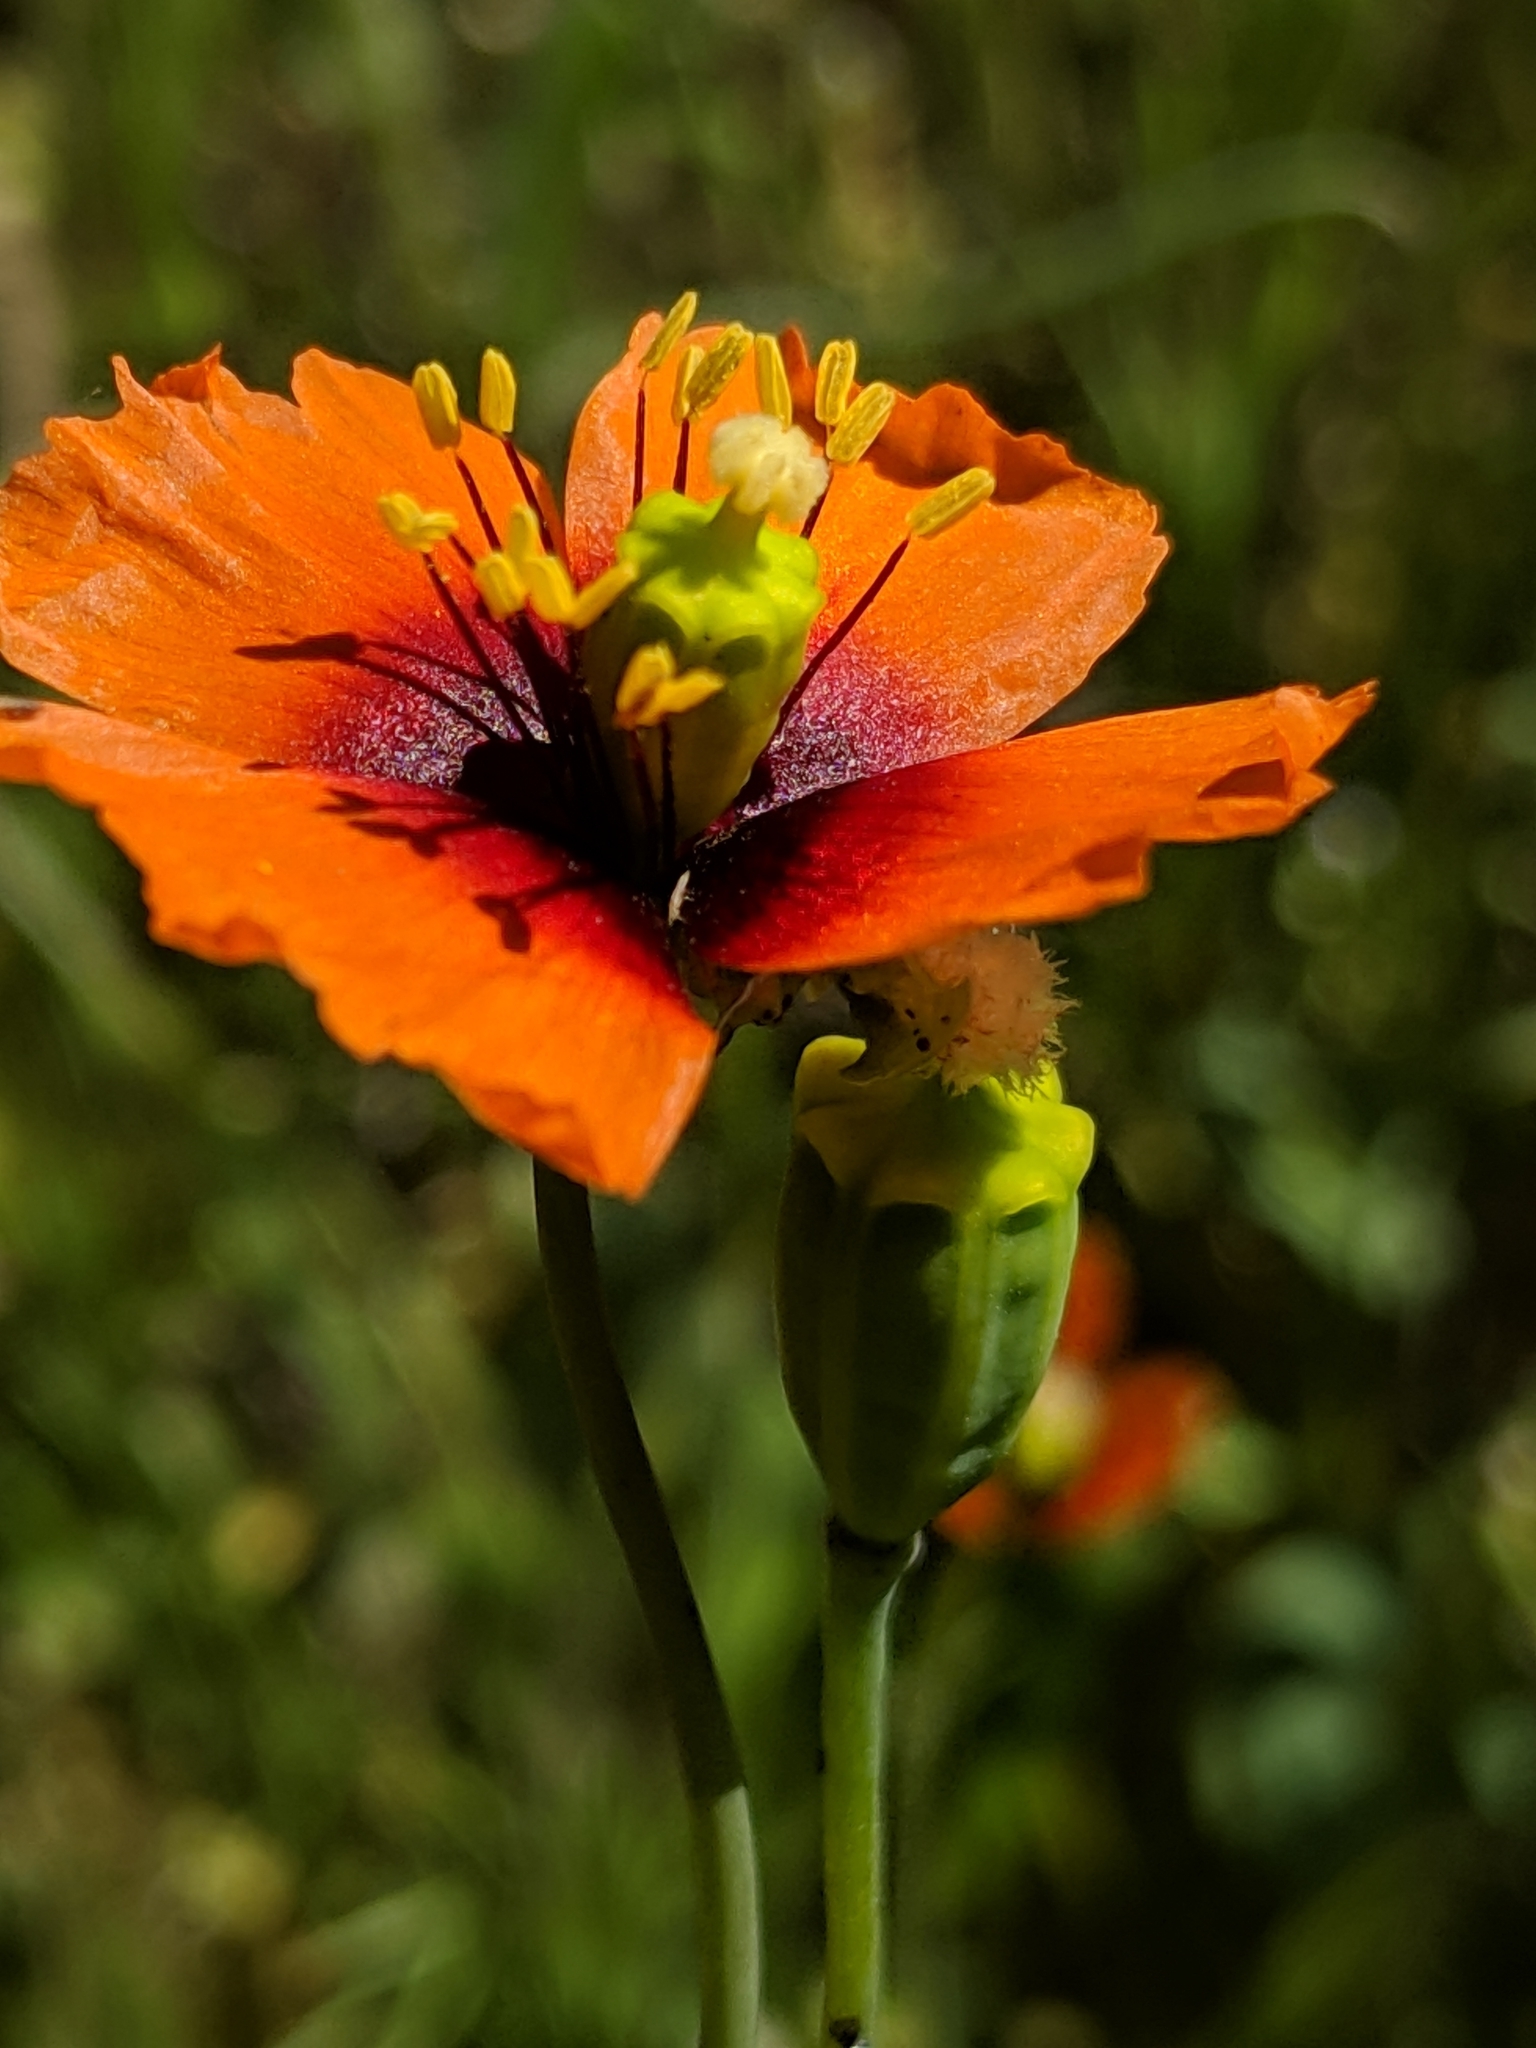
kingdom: Plantae
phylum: Tracheophyta
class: Magnoliopsida
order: Ranunculales
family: Papaveraceae
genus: Stylomecon
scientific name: Stylomecon heterophylla
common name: Flaming-poppy
